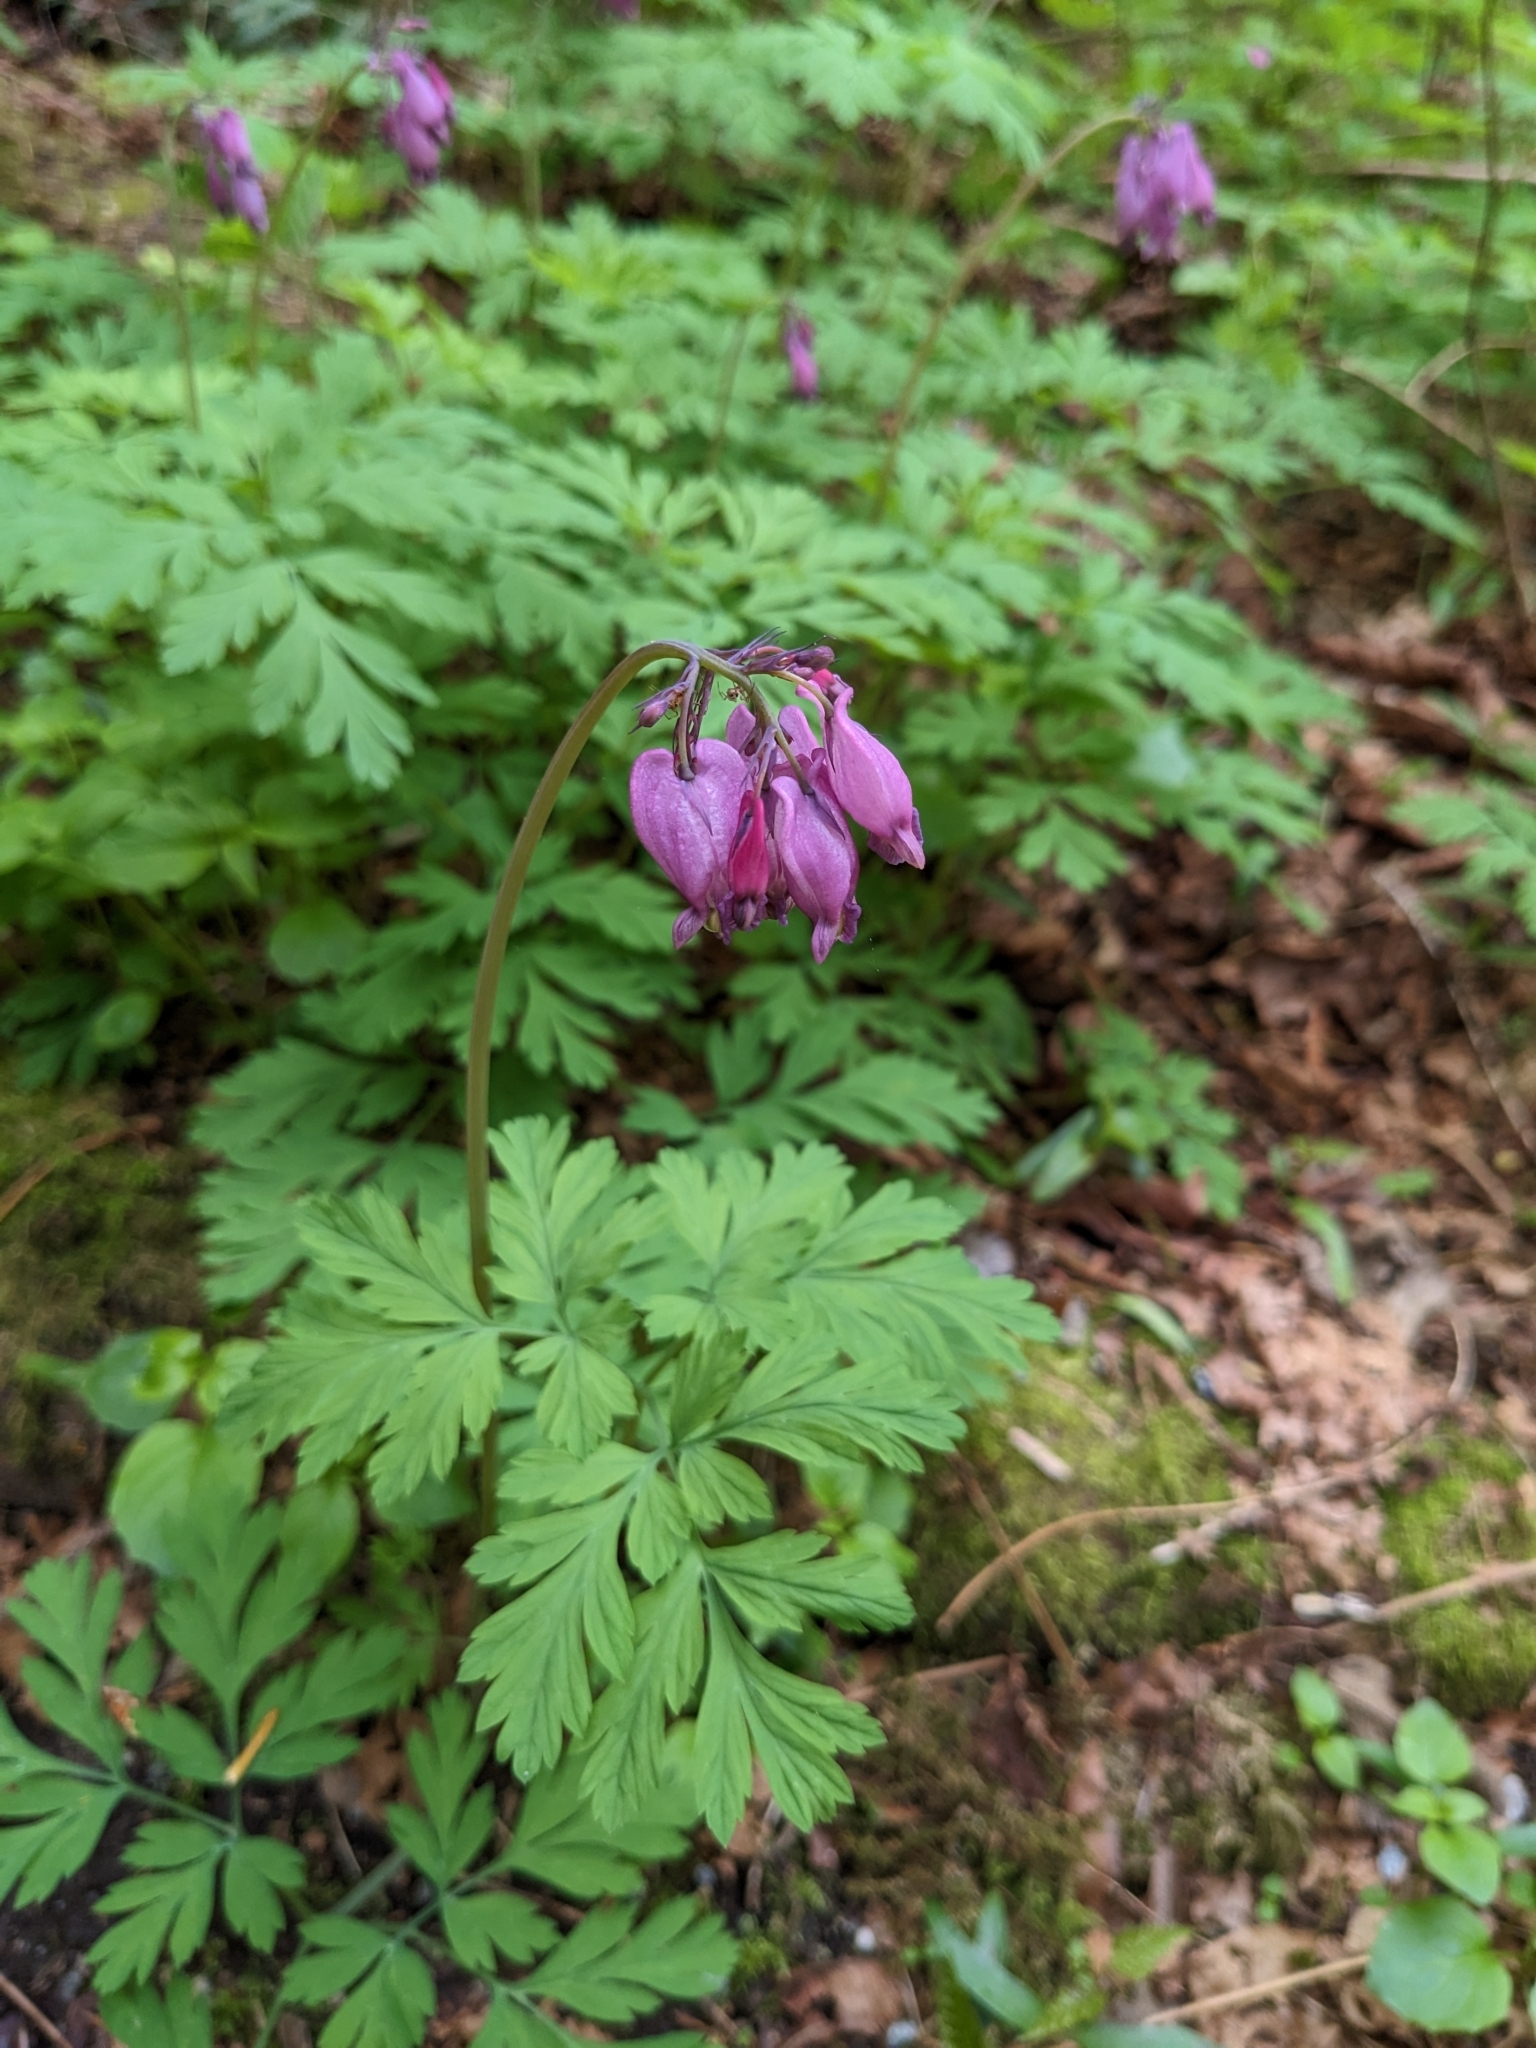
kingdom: Plantae
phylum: Tracheophyta
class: Magnoliopsida
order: Ranunculales
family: Papaveraceae
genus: Dicentra
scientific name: Dicentra formosa
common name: Bleeding-heart
